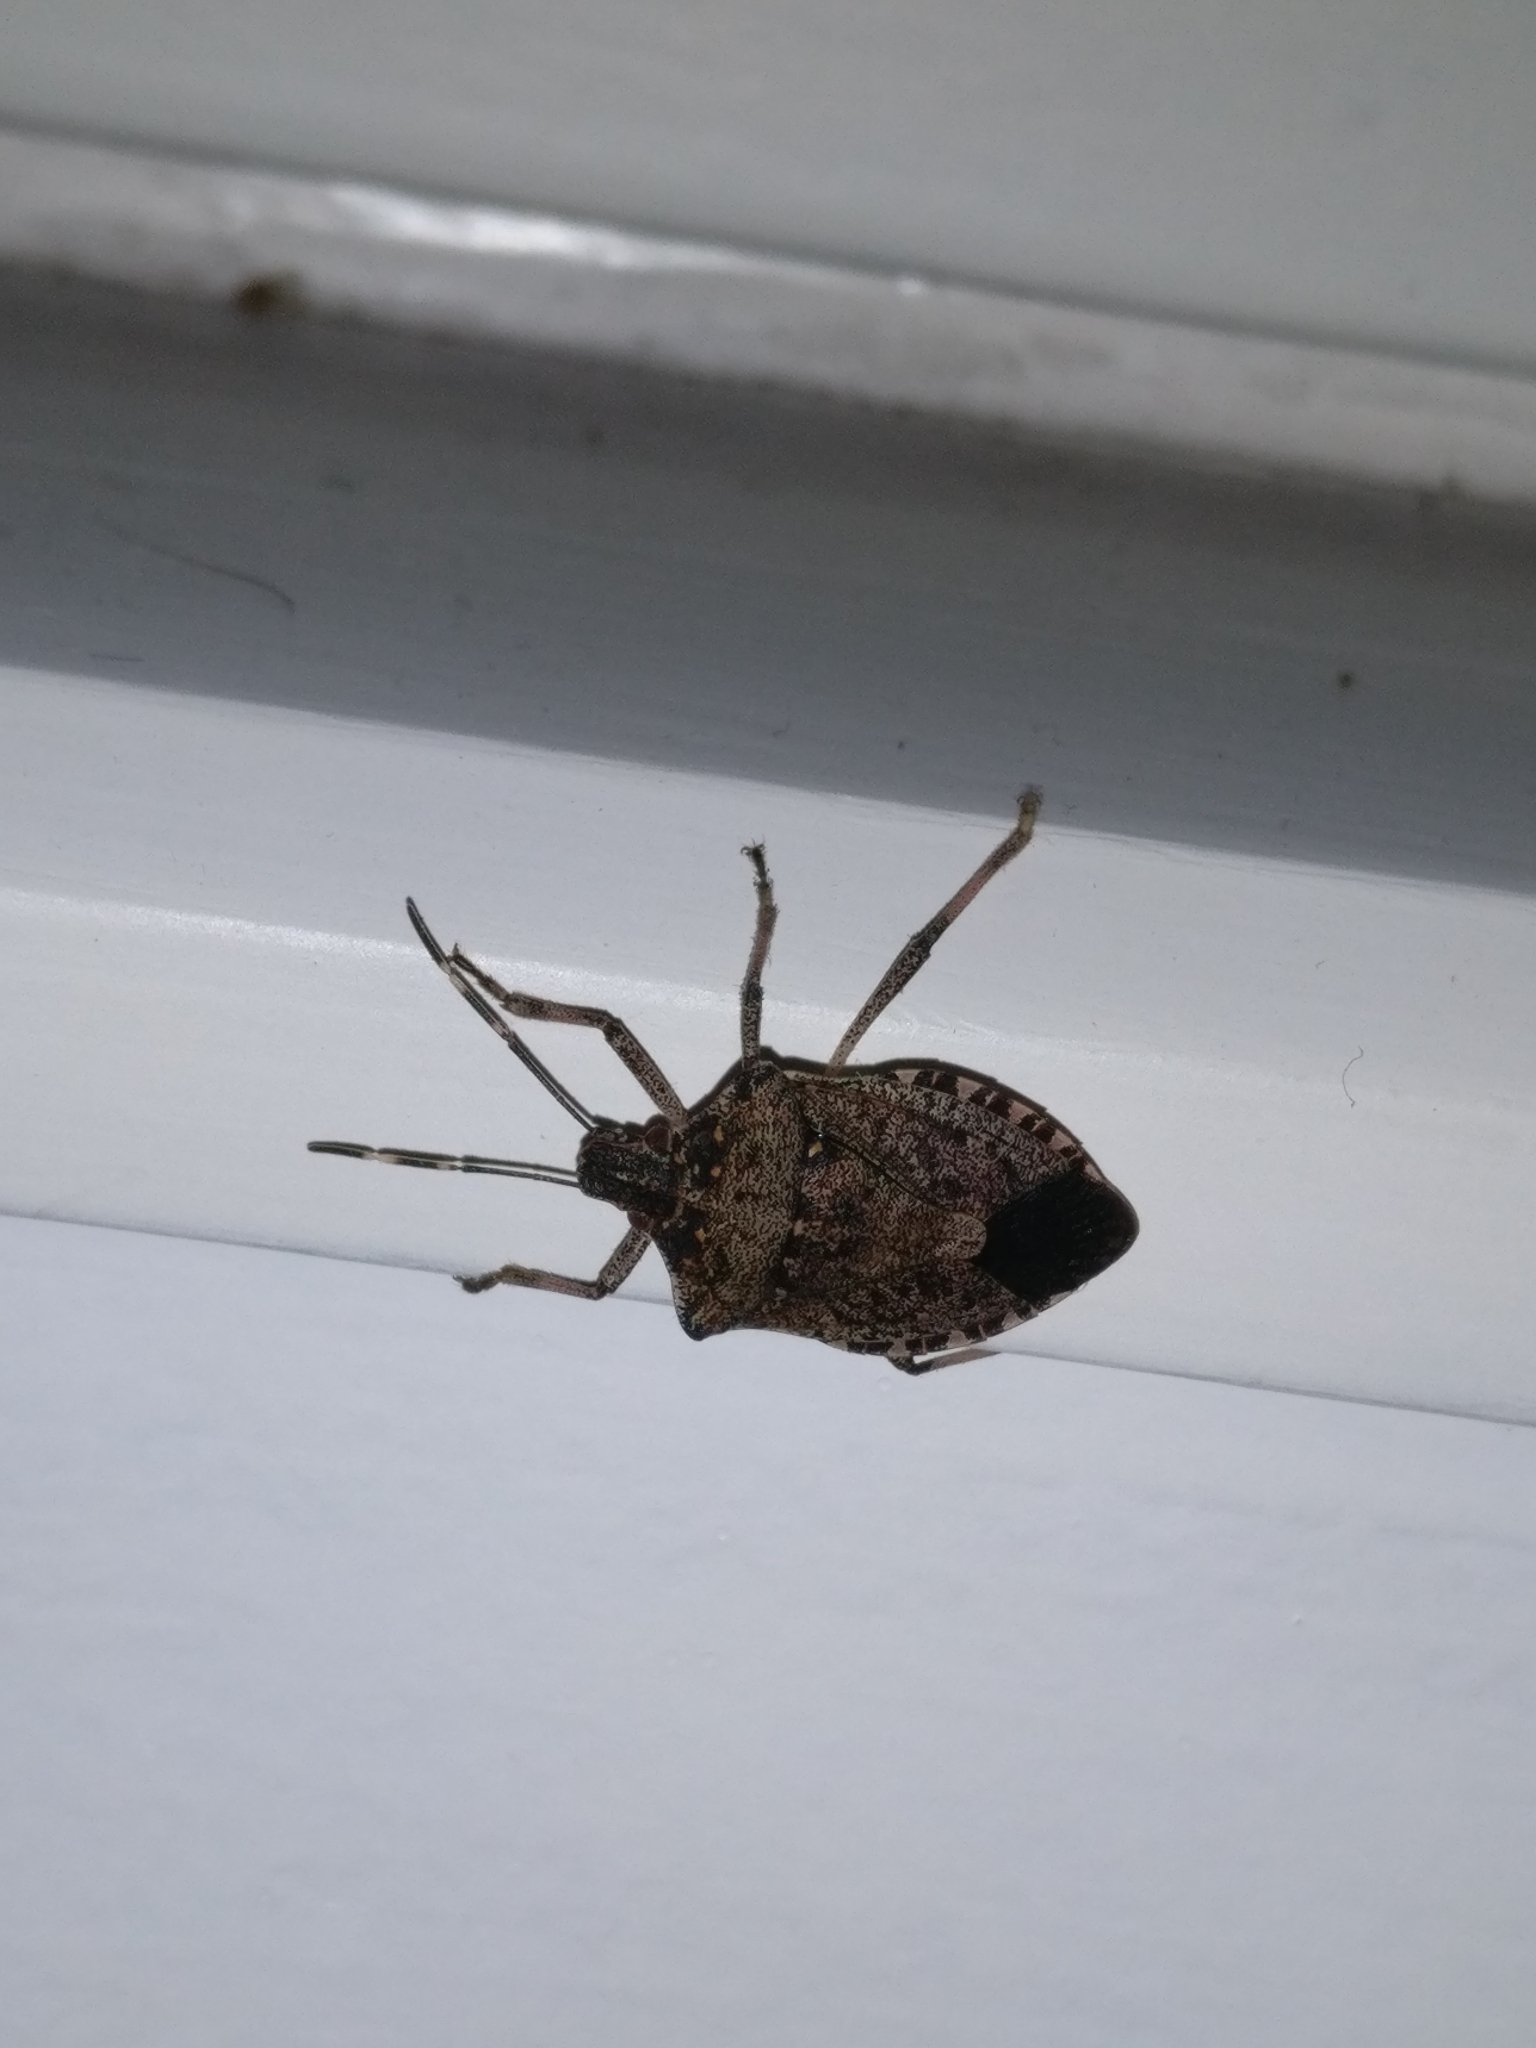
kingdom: Animalia
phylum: Arthropoda
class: Insecta
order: Hemiptera
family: Pentatomidae
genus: Halyomorpha
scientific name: Halyomorpha halys
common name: Brown marmorated stink bug
